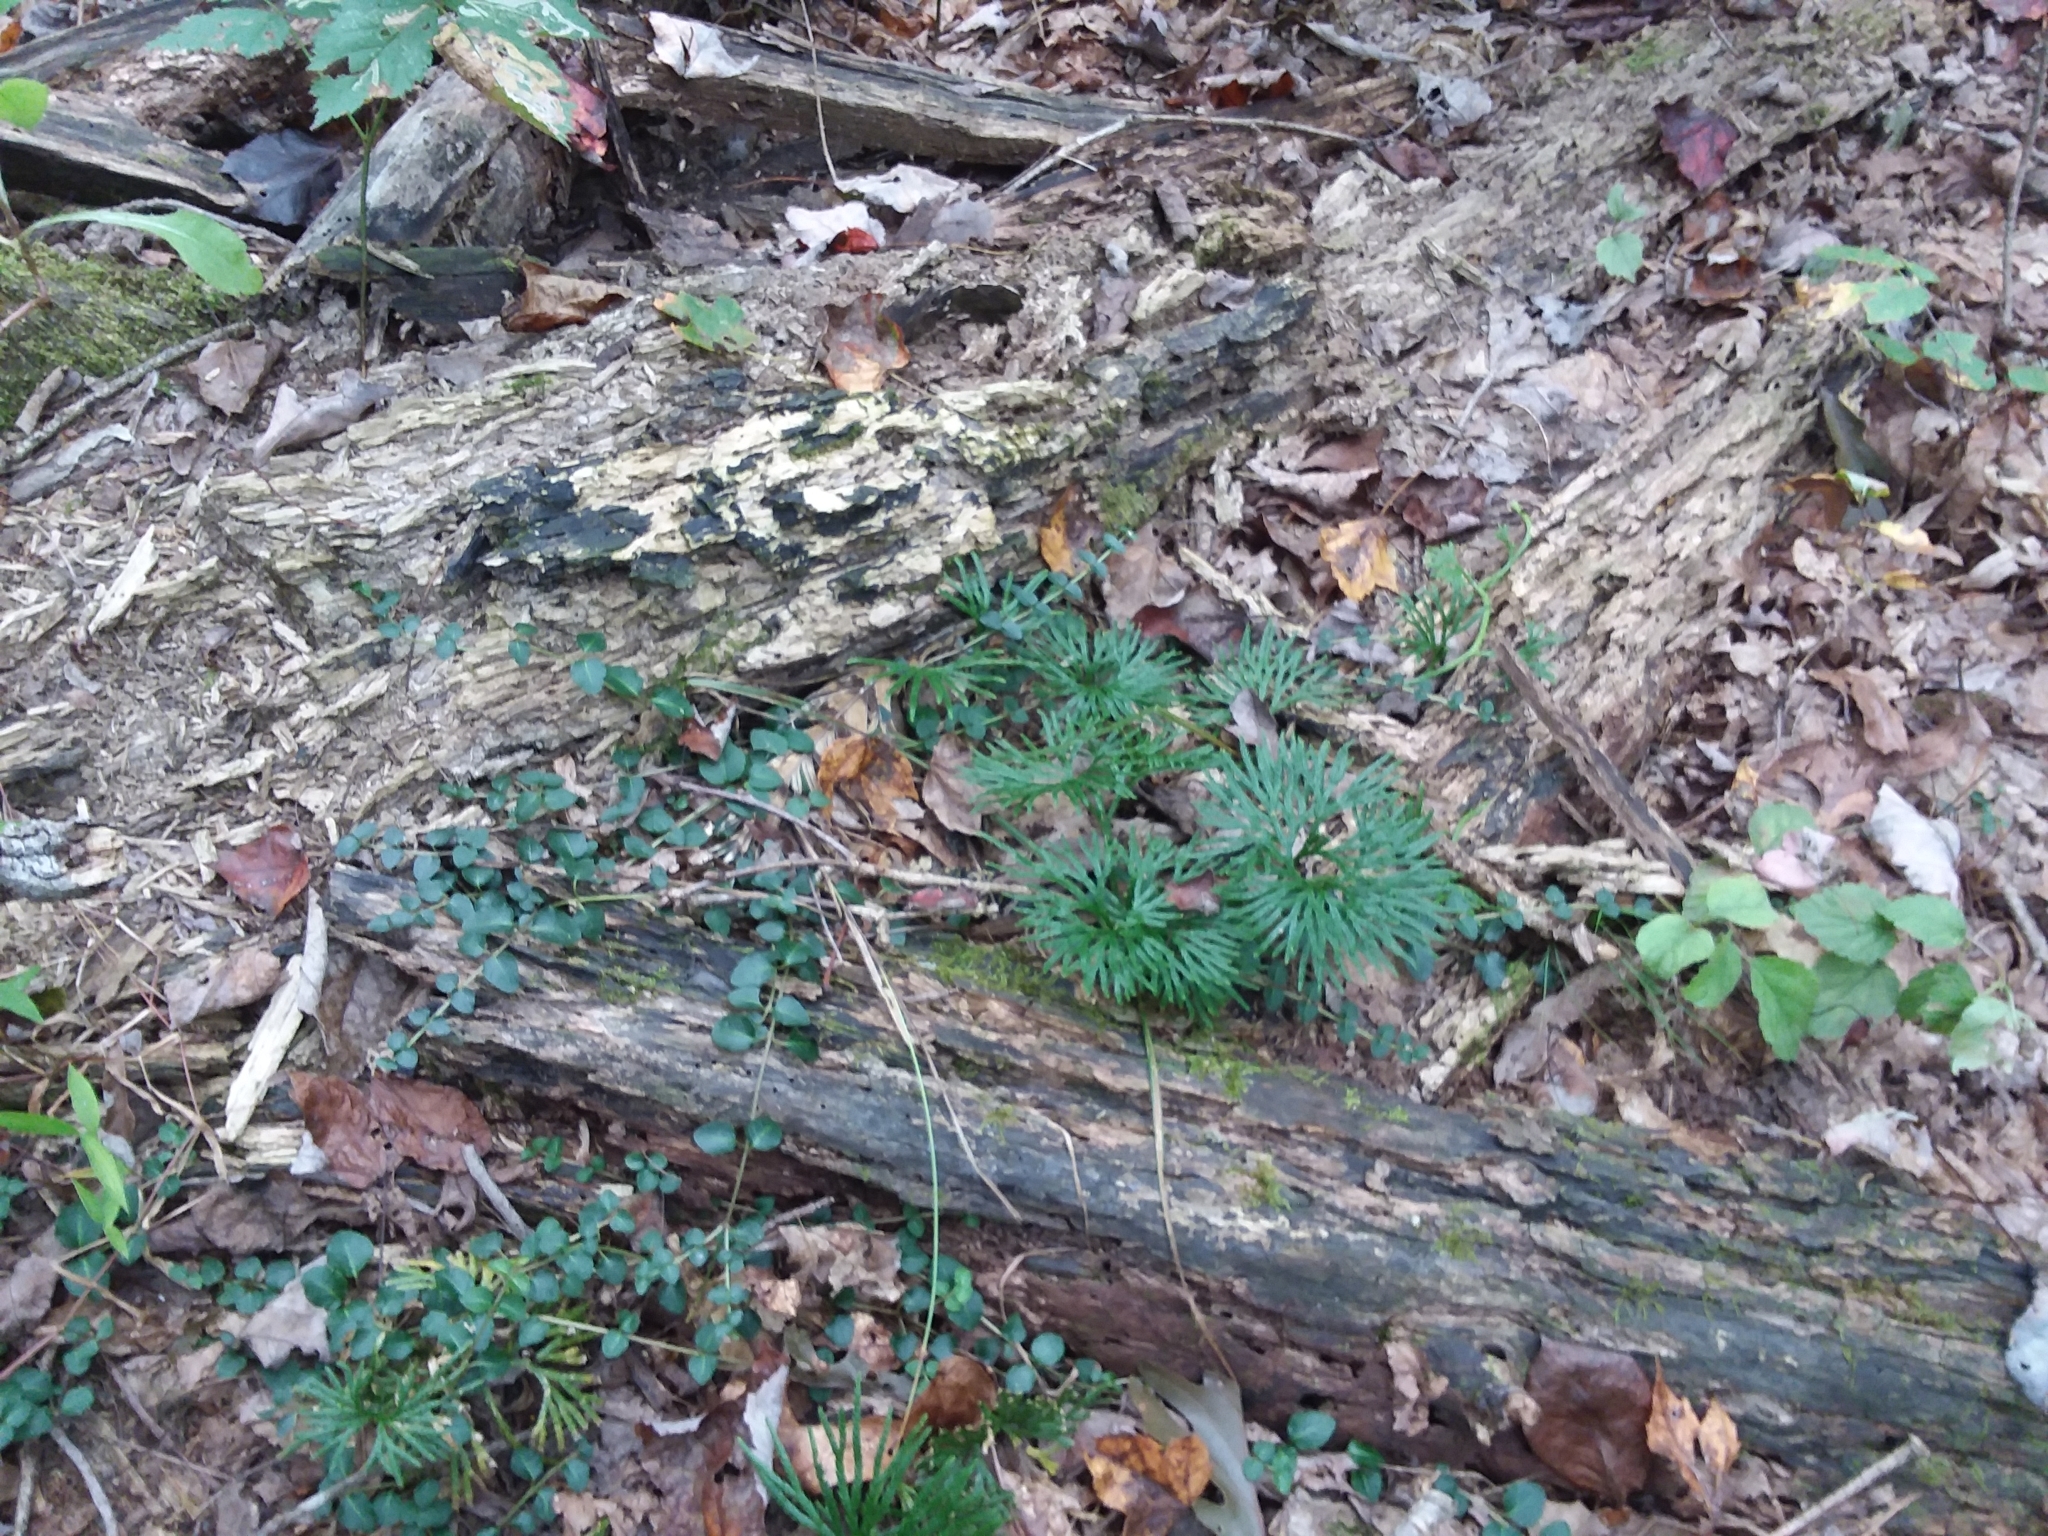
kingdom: Plantae
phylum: Tracheophyta
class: Lycopodiopsida
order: Lycopodiales
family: Lycopodiaceae
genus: Diphasiastrum
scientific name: Diphasiastrum digitatum
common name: Southern running-pine
